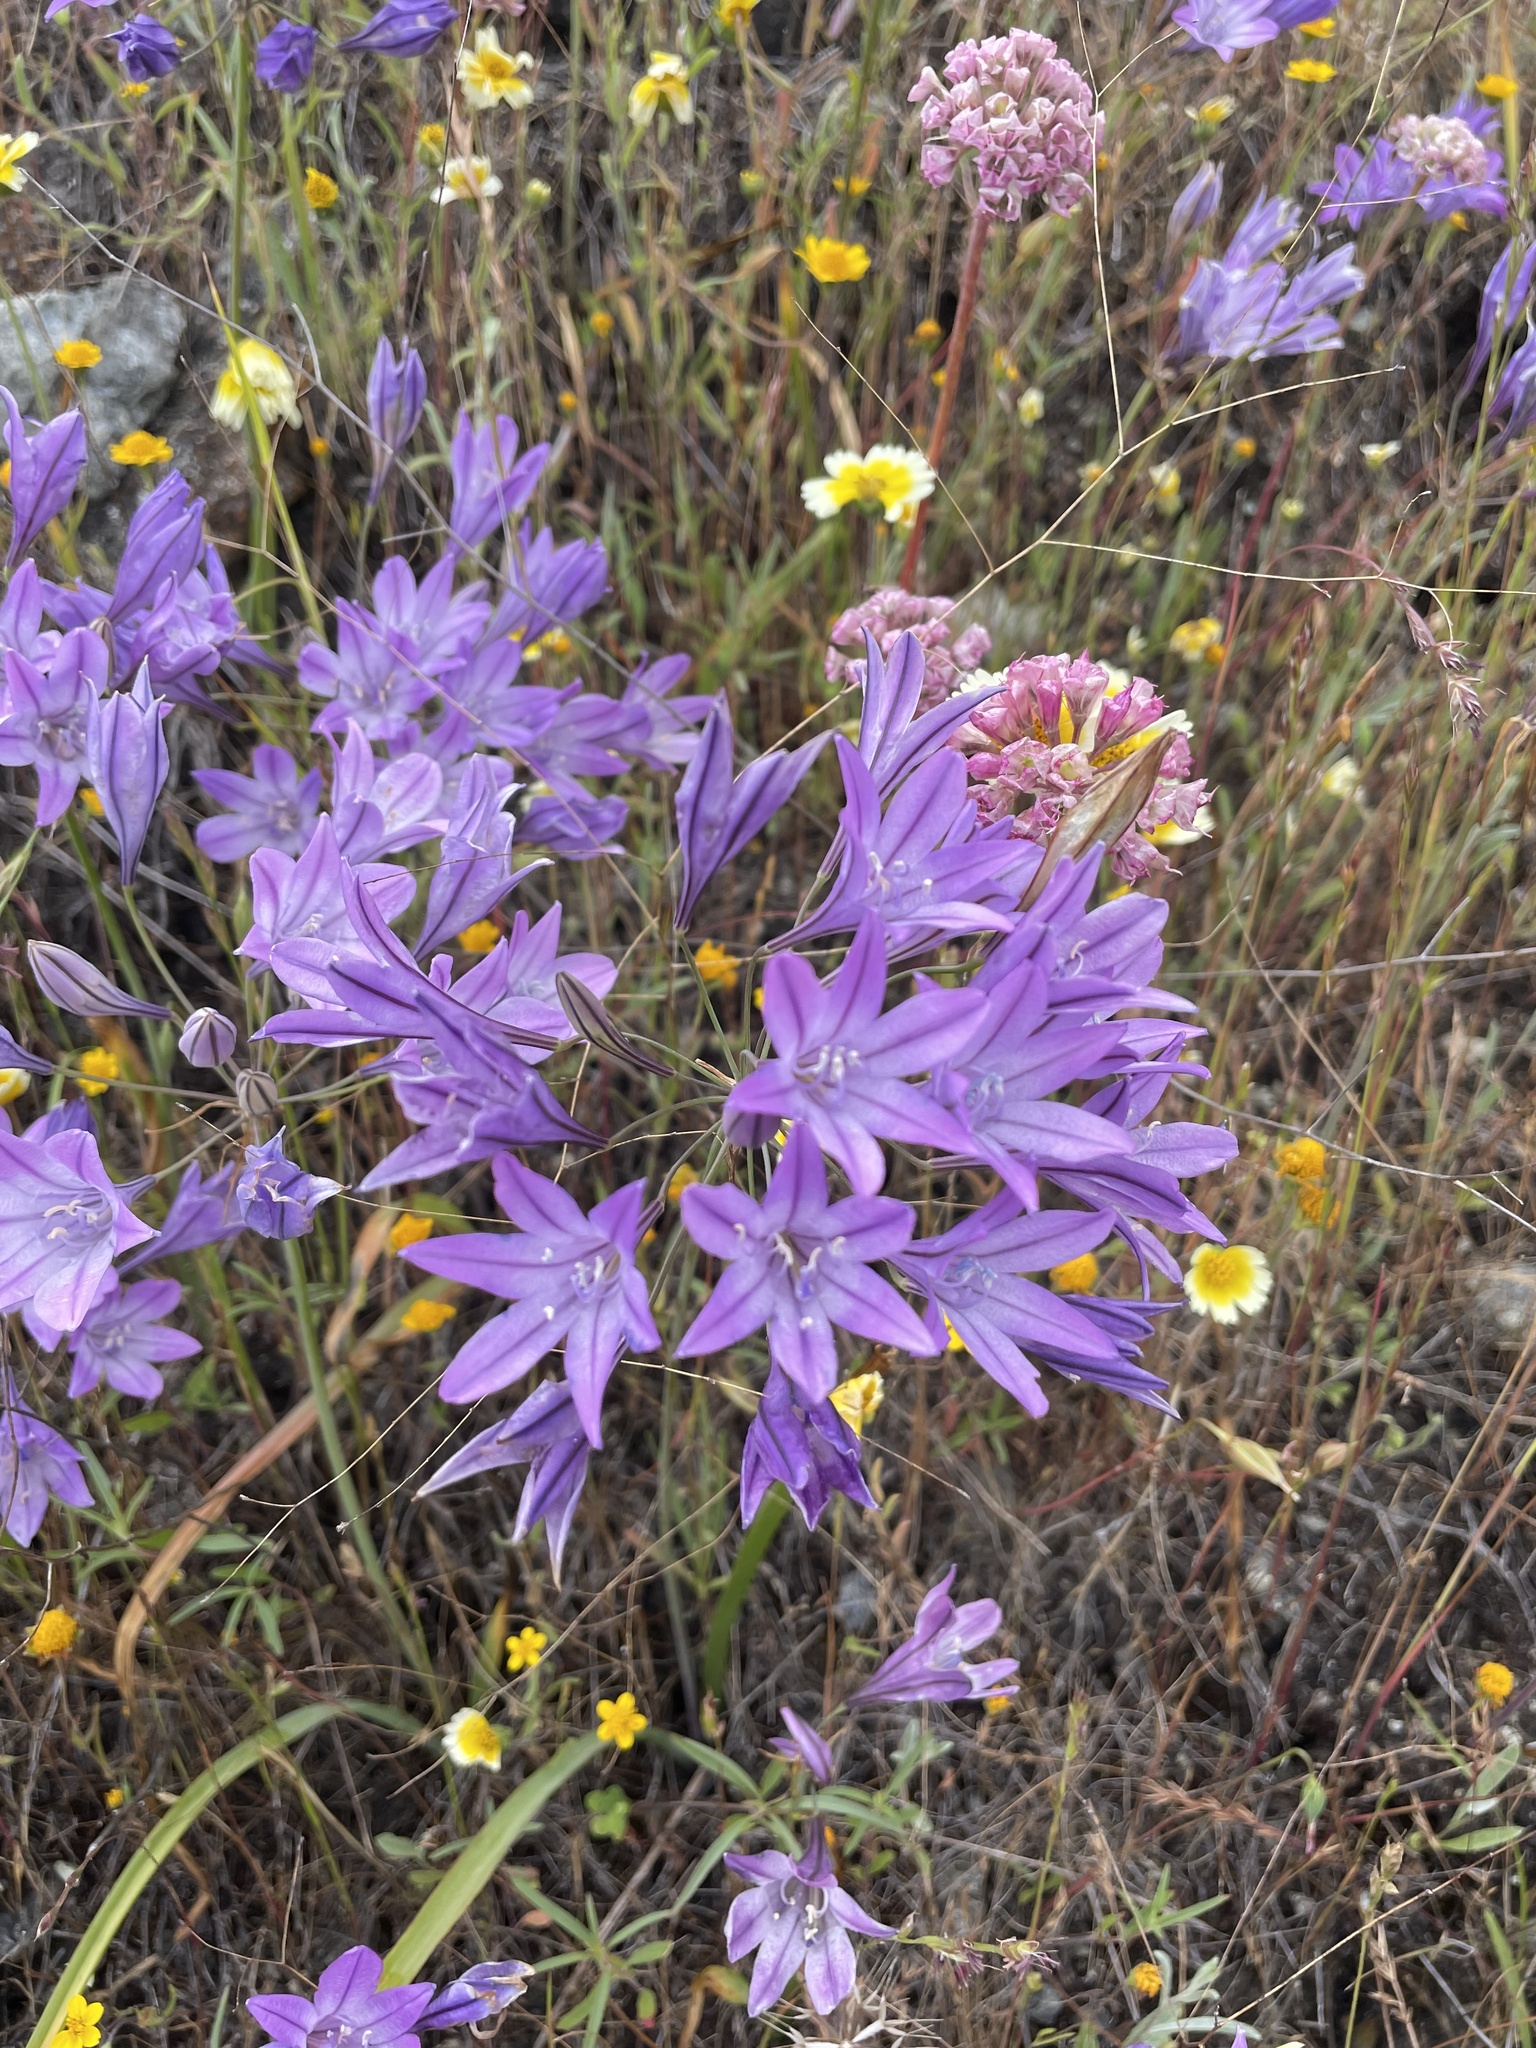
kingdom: Plantae
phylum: Tracheophyta
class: Liliopsida
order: Asparagales
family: Asparagaceae
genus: Triteleia
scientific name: Triteleia laxa
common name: Triplet-lily
